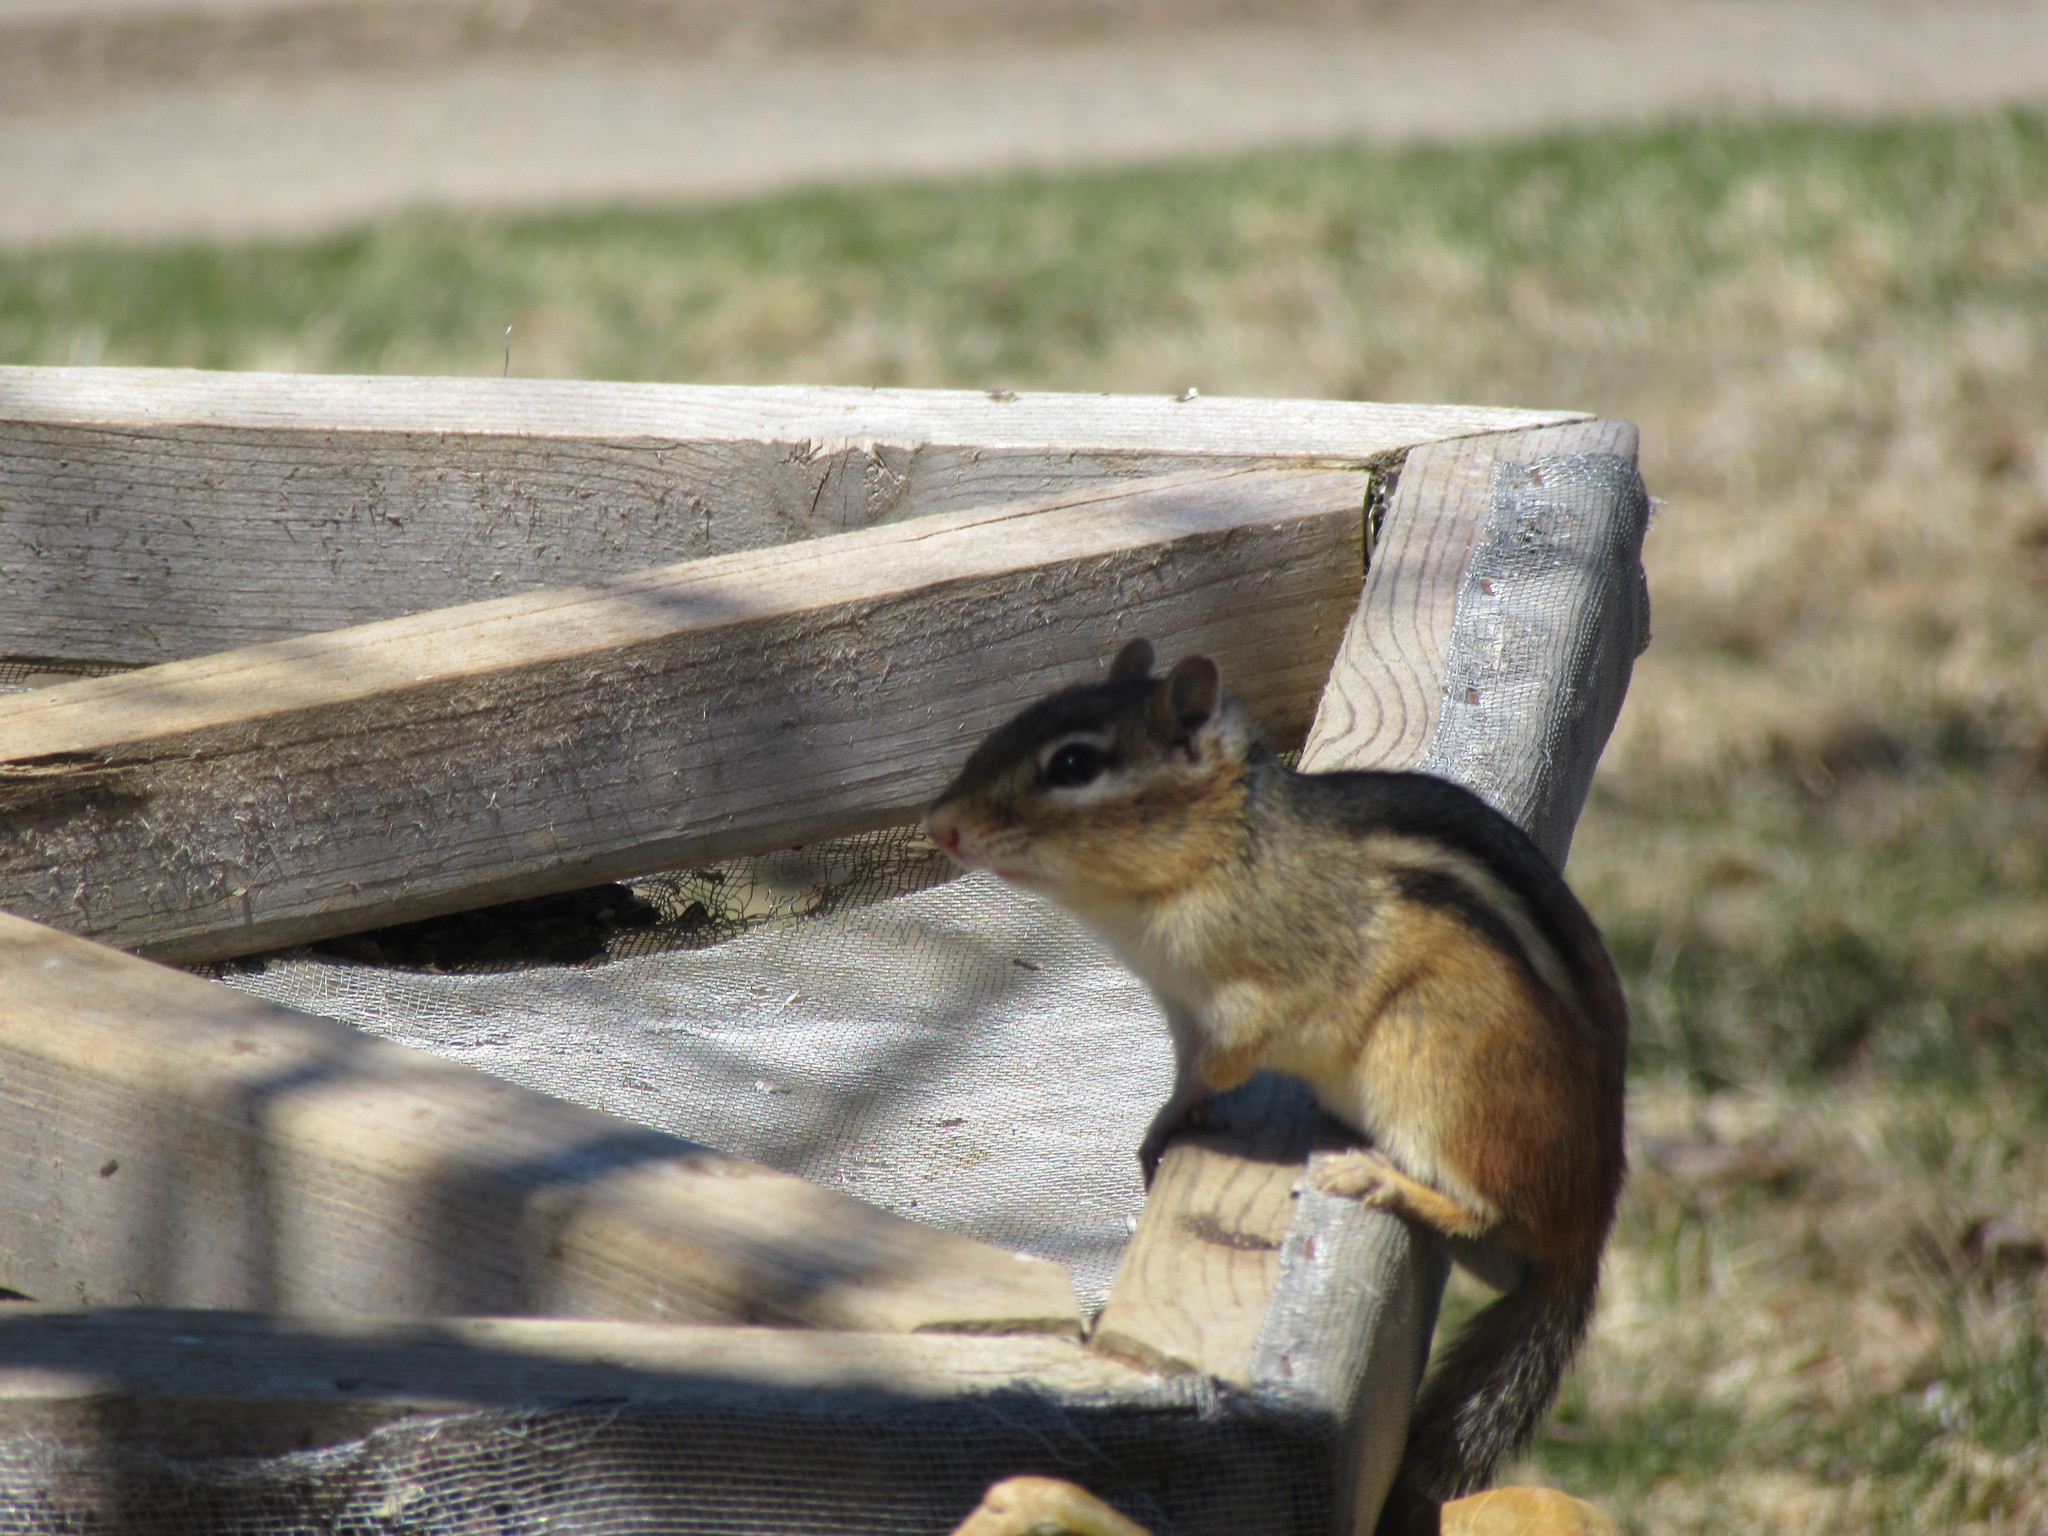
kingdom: Animalia
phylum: Chordata
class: Mammalia
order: Rodentia
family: Sciuridae
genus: Tamias
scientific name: Tamias striatus
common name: Eastern chipmunk
